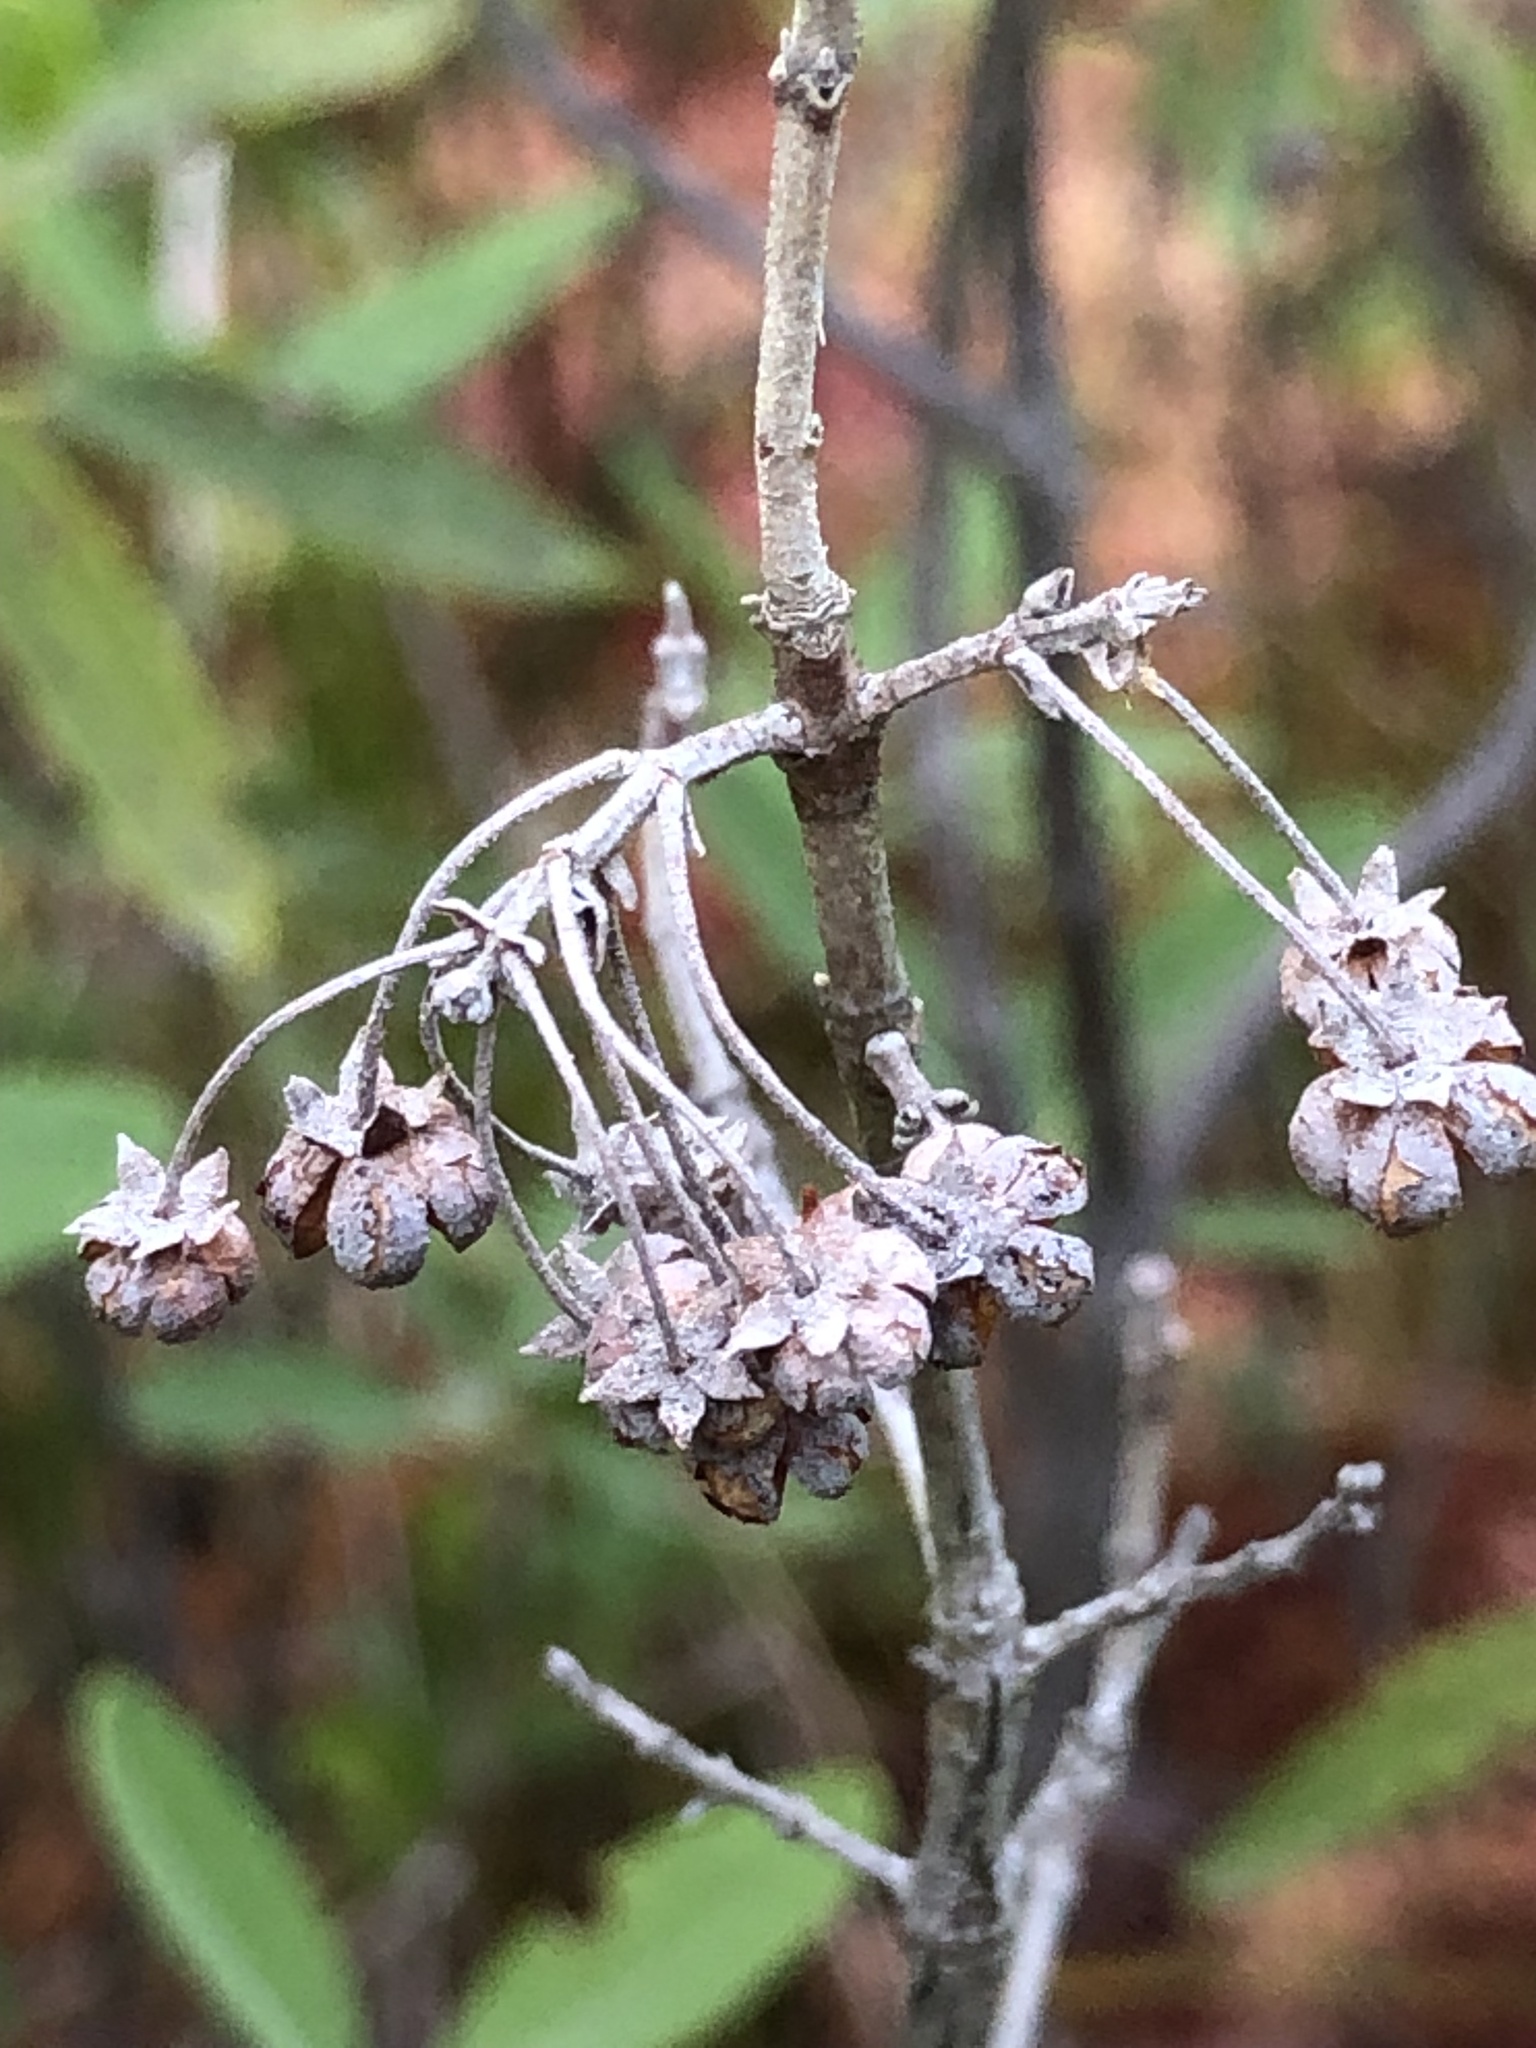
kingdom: Plantae
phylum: Tracheophyta
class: Magnoliopsida
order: Ericales
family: Ericaceae
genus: Kalmia
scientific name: Kalmia angustifolia
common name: Sheep-laurel
